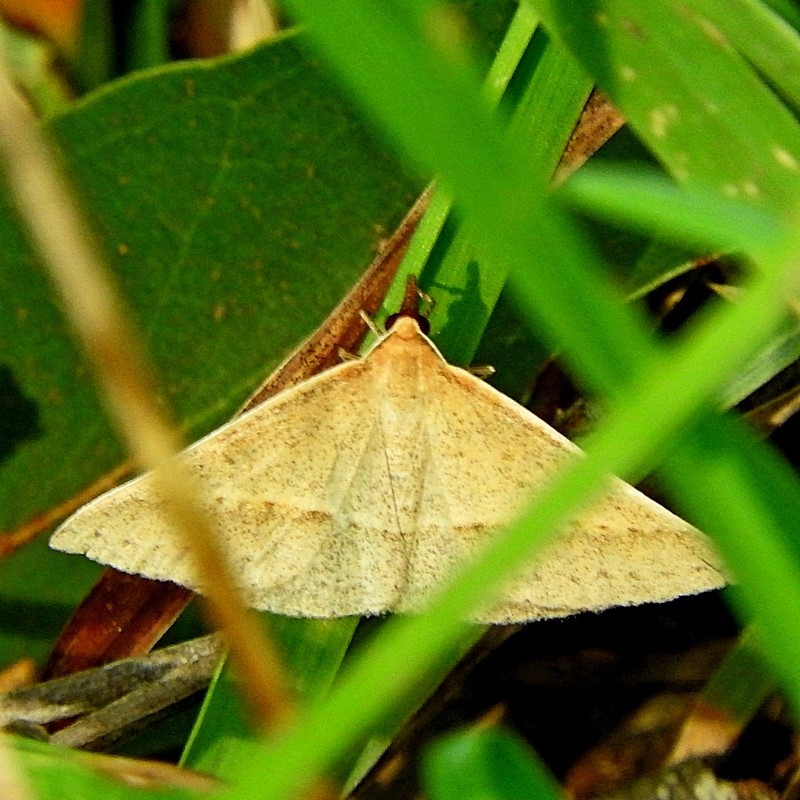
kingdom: Animalia
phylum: Arthropoda
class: Insecta
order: Lepidoptera
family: Geometridae
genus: Epidesmia
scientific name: Epidesmia hypenaria
